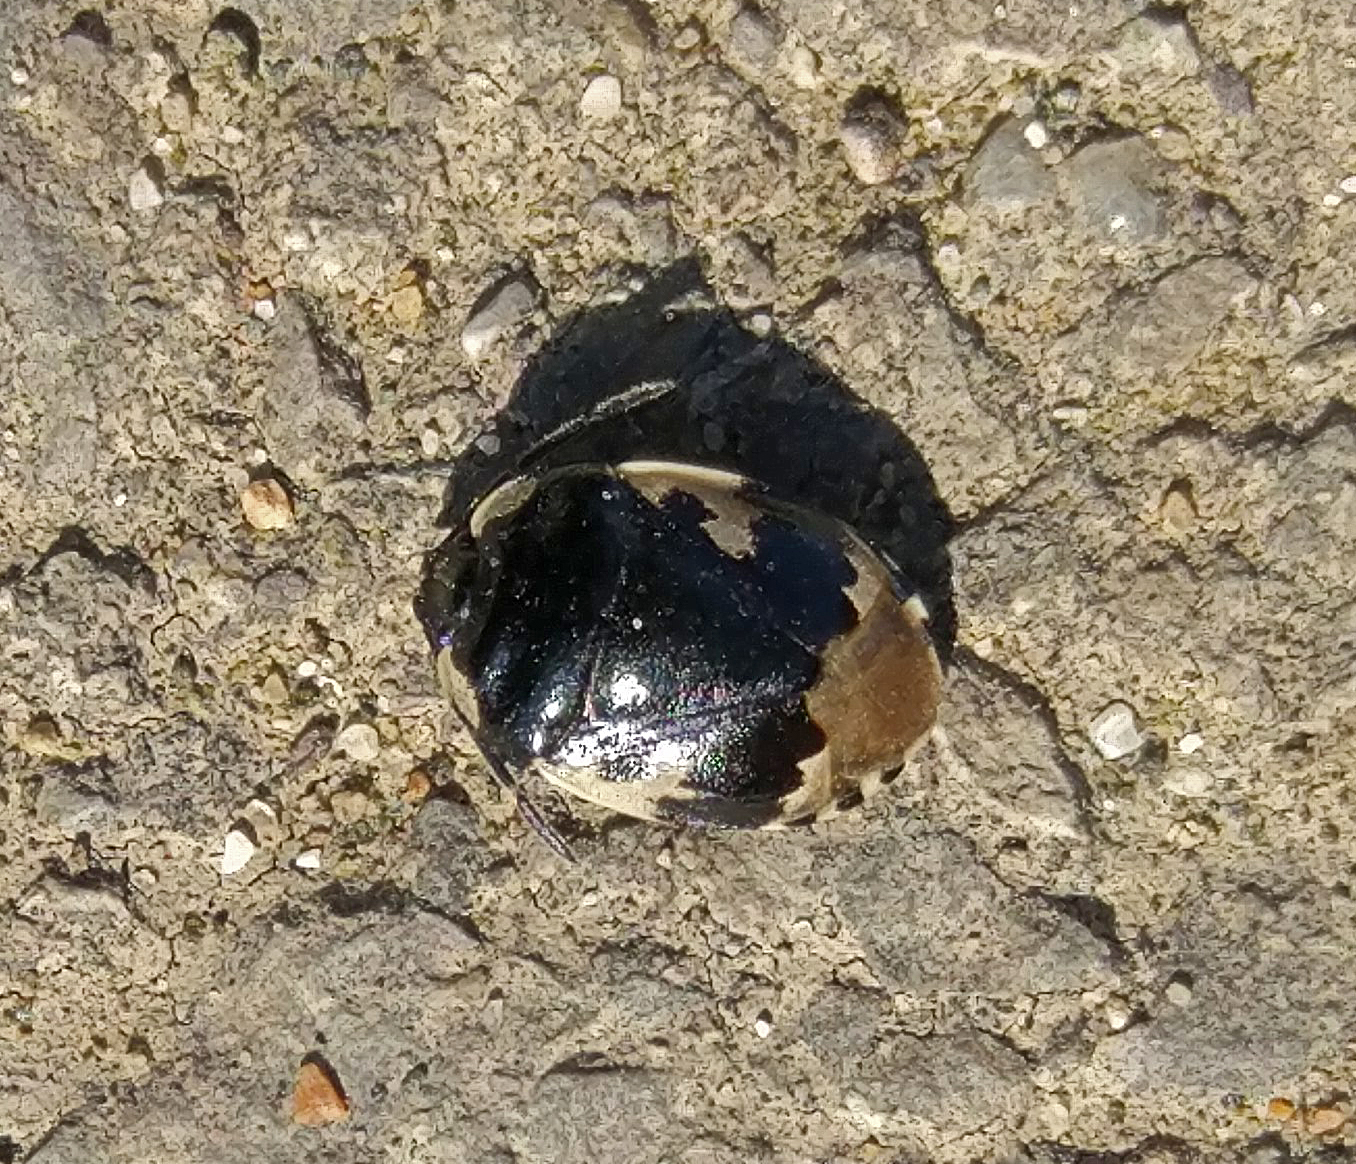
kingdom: Animalia
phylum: Arthropoda
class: Insecta
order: Hemiptera
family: Cydnidae
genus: Tritomegas
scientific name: Tritomegas bicolor
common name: Pied shieldbug
